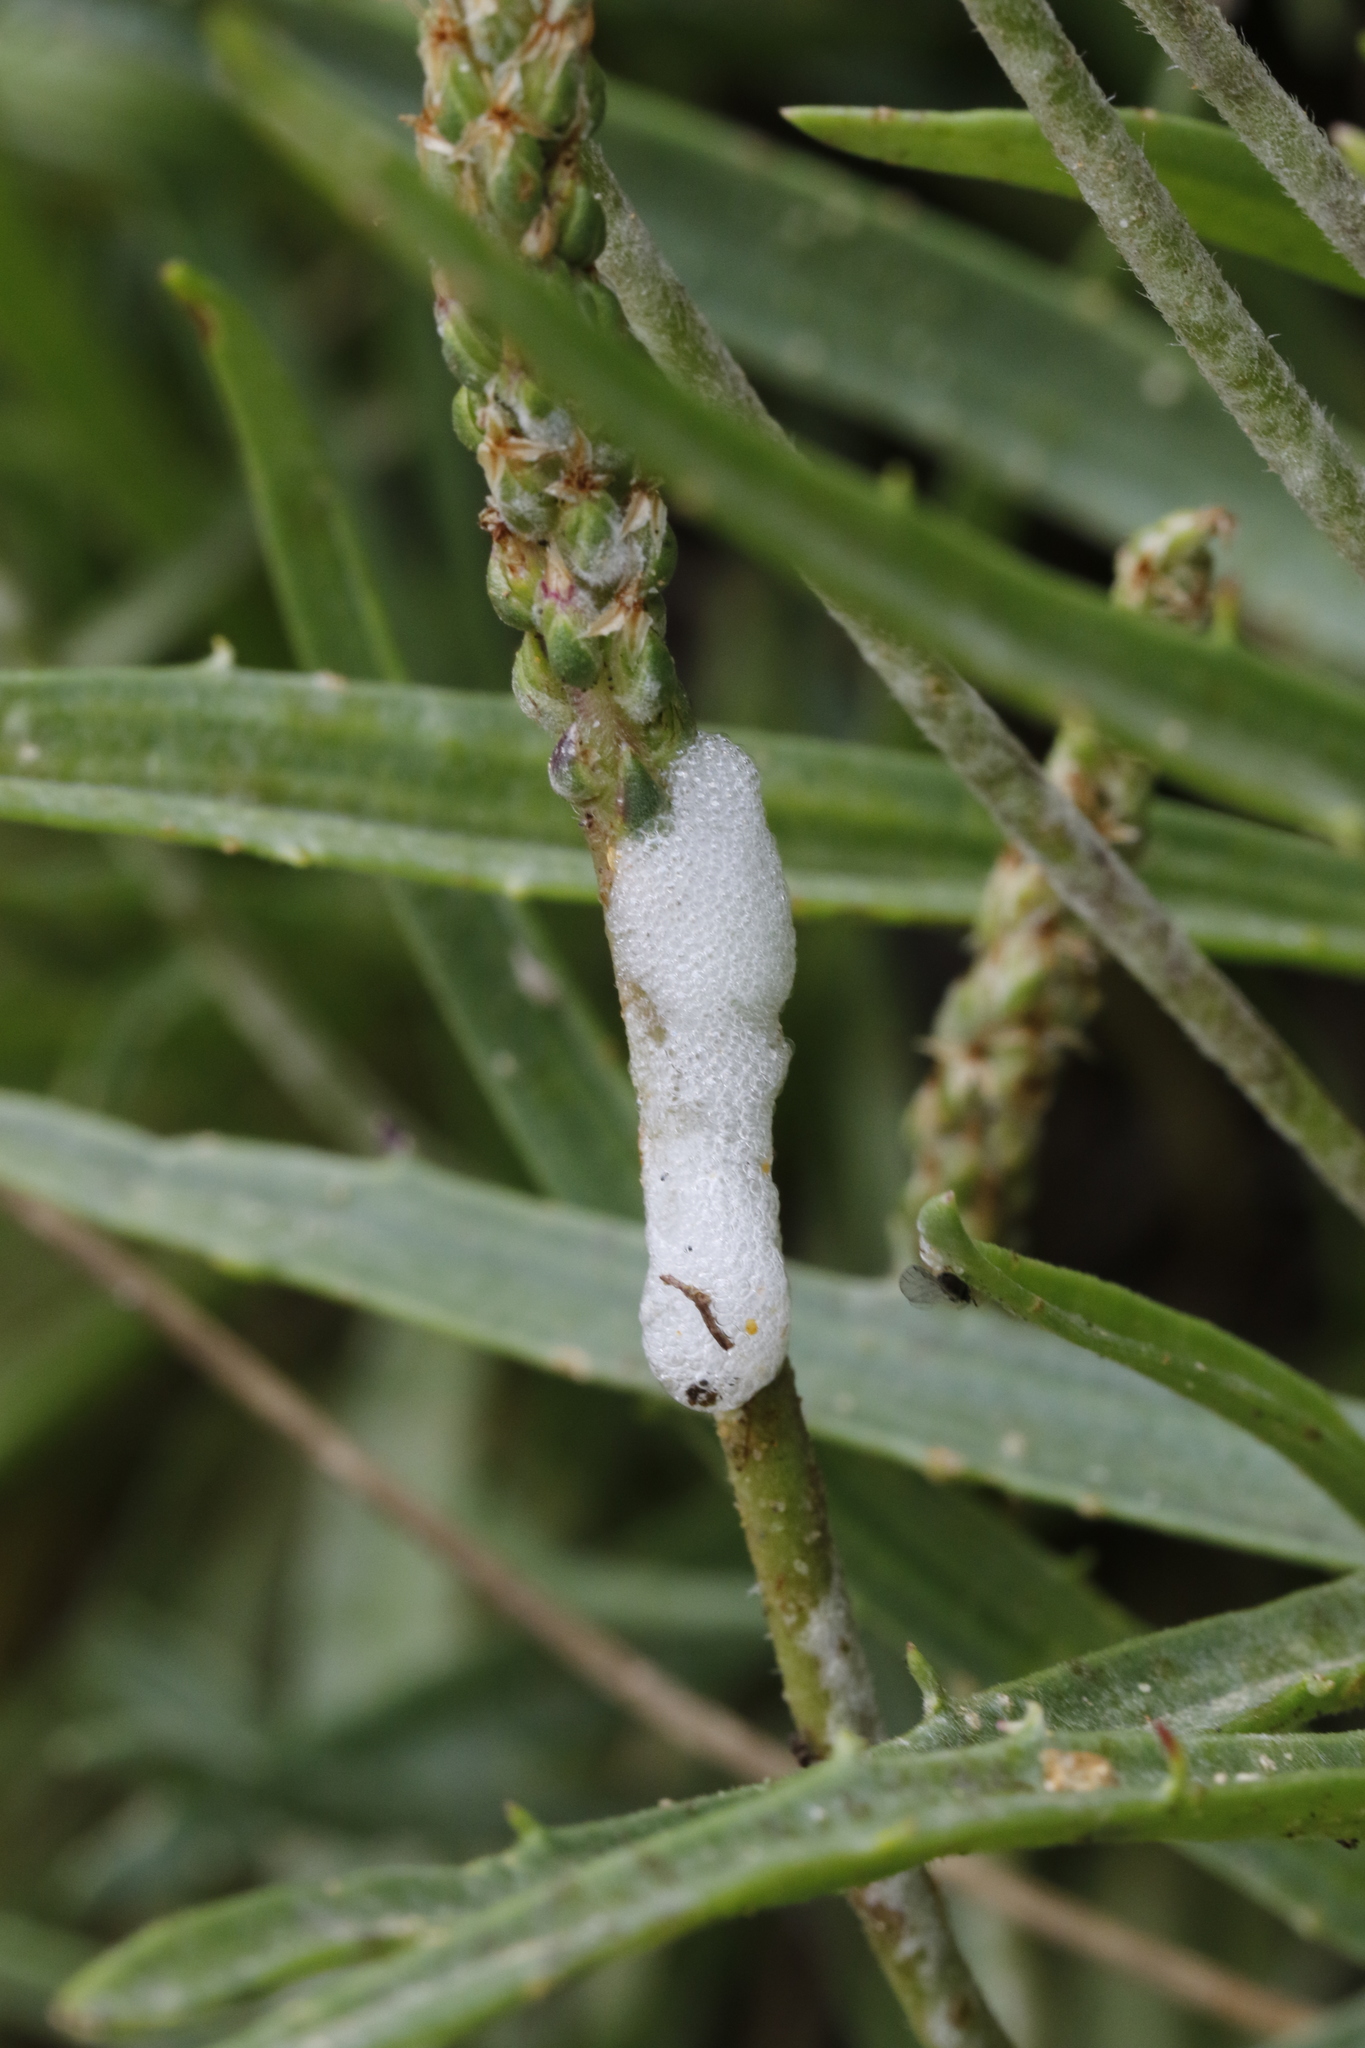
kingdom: Animalia
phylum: Arthropoda
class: Insecta
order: Hemiptera
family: Aphrophoridae
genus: Philaenus
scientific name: Philaenus spumarius
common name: Meadow spittlebug
